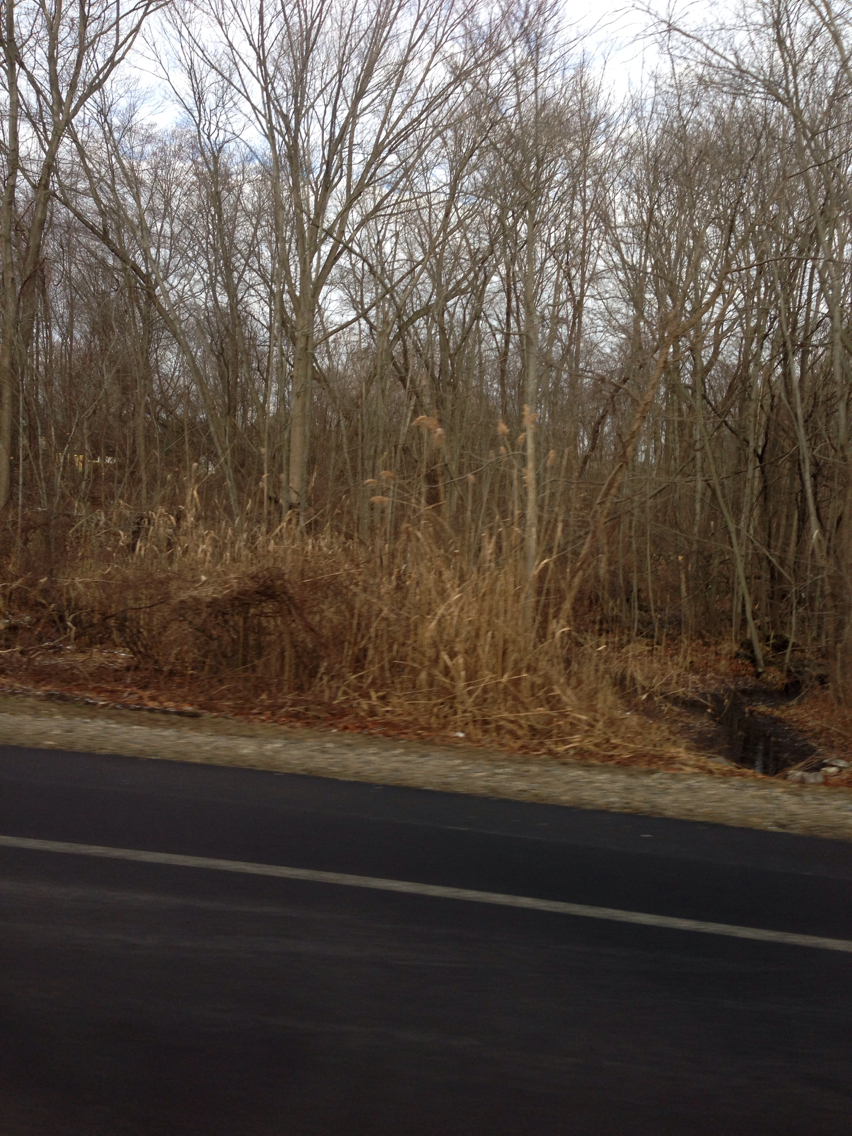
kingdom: Plantae
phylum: Tracheophyta
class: Liliopsida
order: Poales
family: Poaceae
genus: Phragmites
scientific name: Phragmites australis
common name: Common reed
